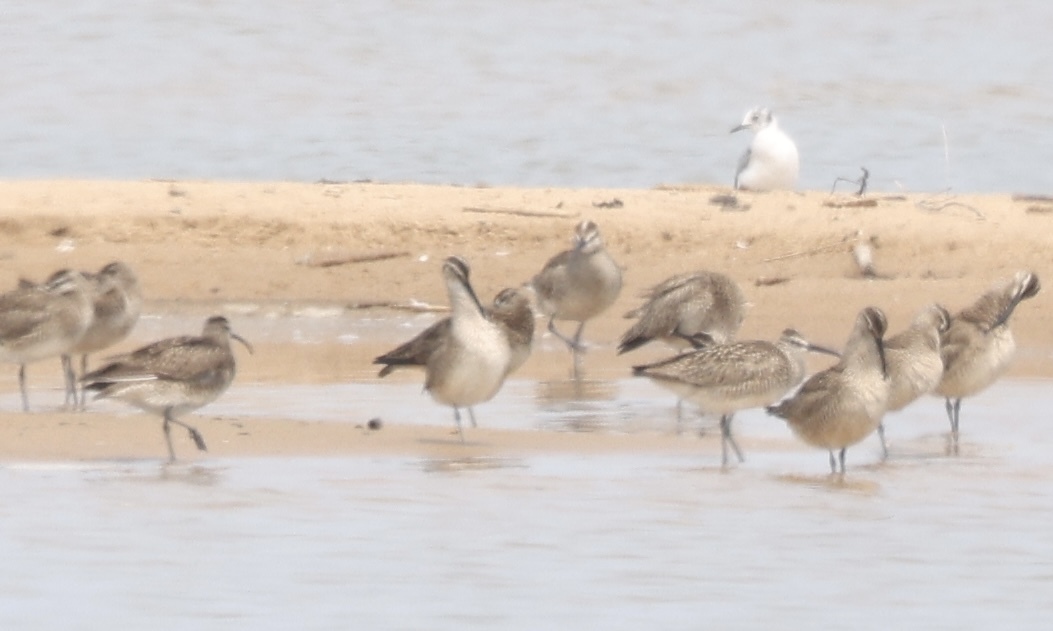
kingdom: Animalia
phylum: Chordata
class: Aves
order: Charadriiformes
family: Scolopacidae
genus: Numenius
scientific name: Numenius phaeopus
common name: Whimbrel
